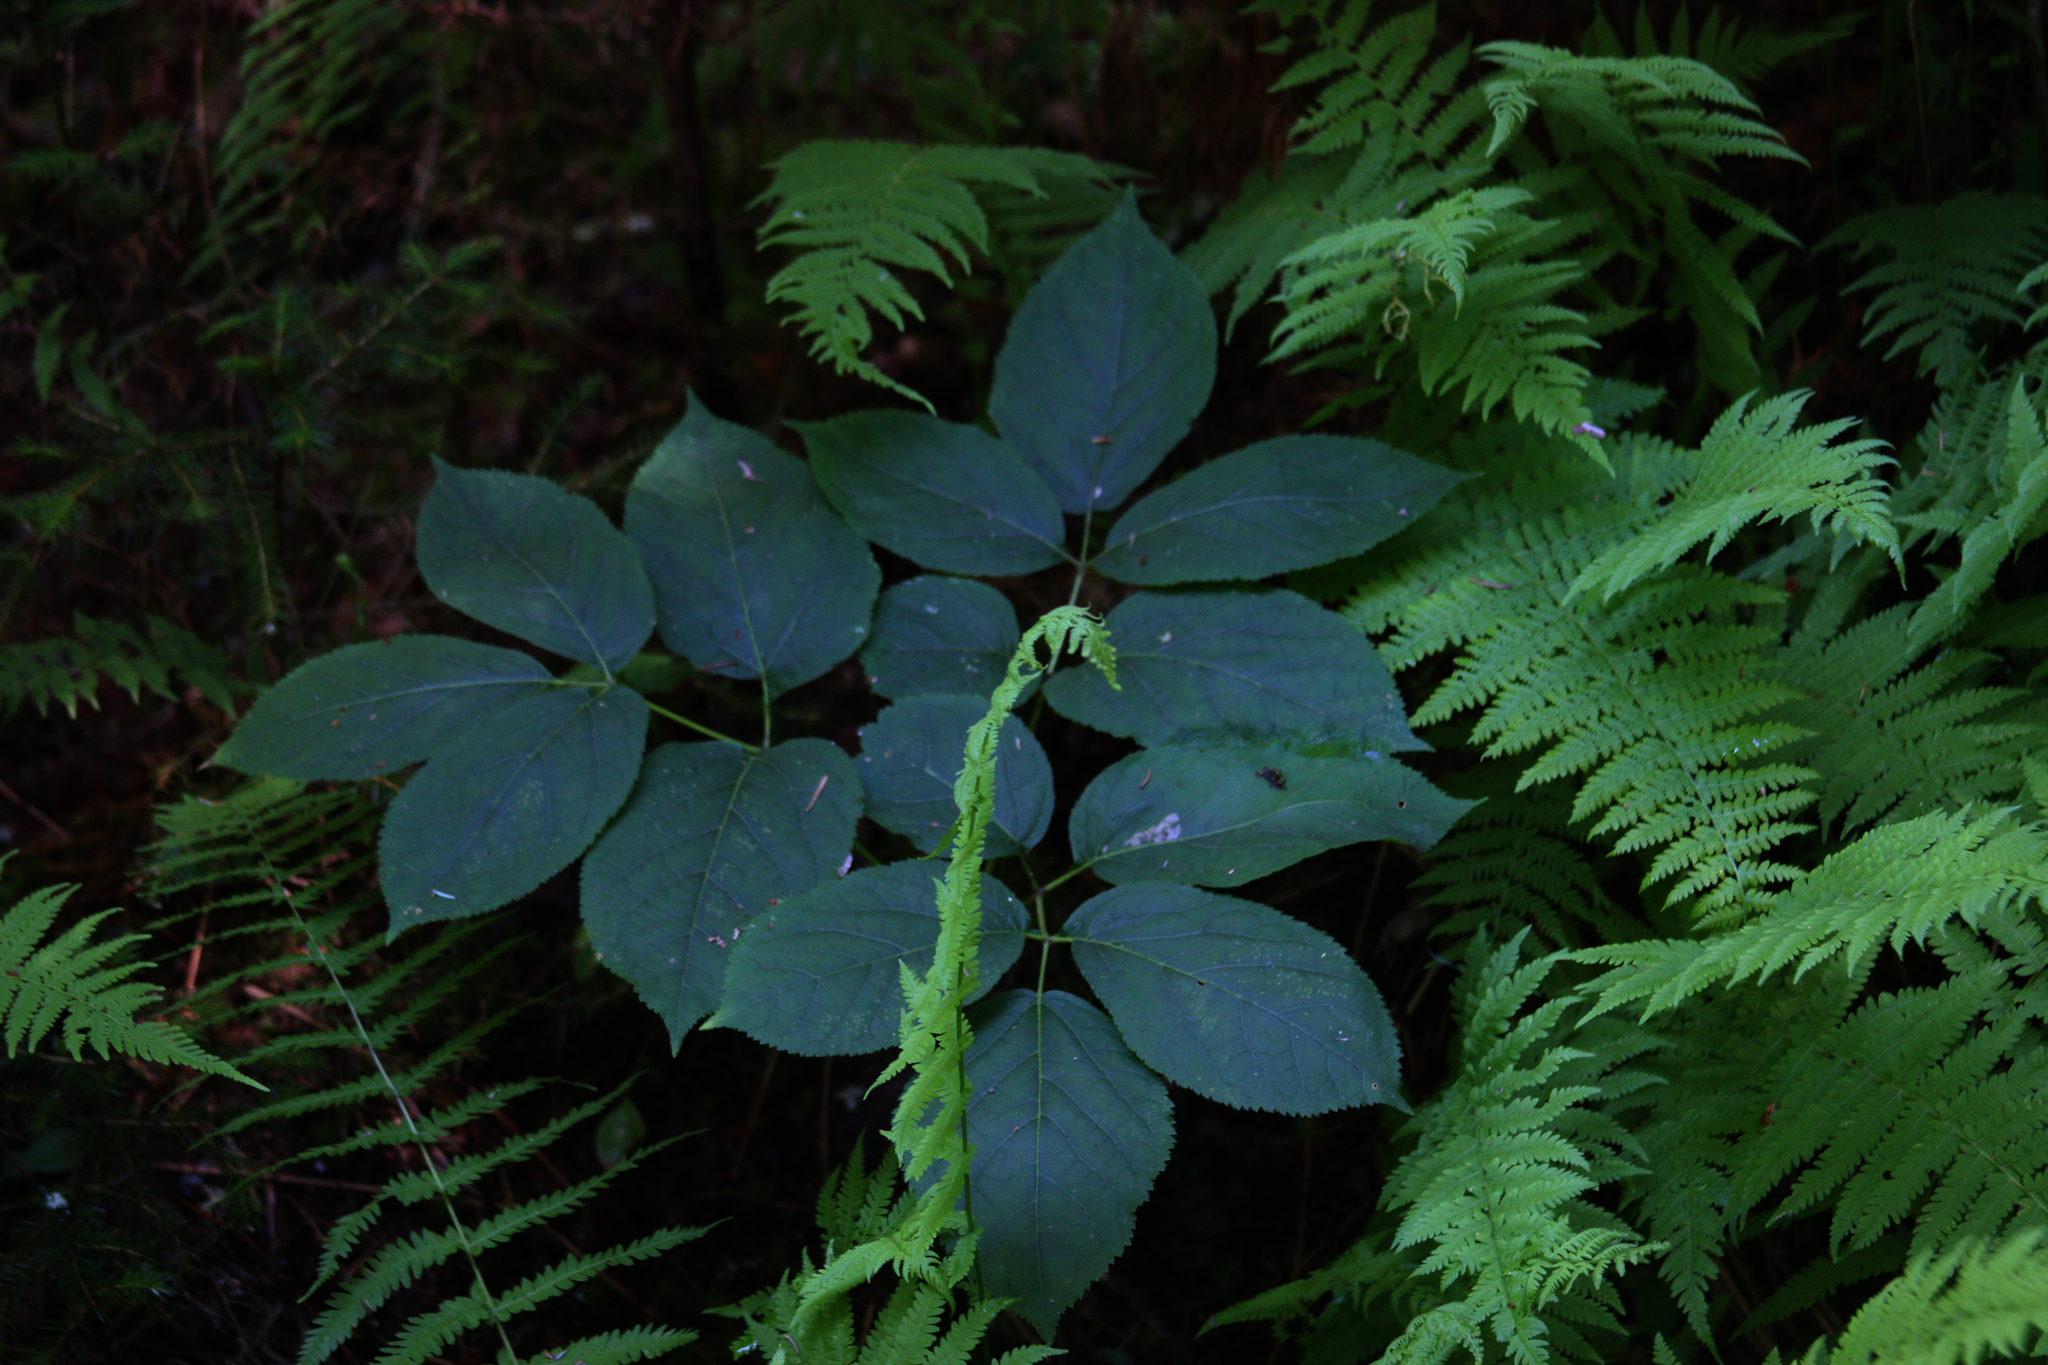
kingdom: Plantae
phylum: Tracheophyta
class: Magnoliopsida
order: Apiales
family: Araliaceae
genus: Aralia
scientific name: Aralia nudicaulis
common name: Wild sarsaparilla
